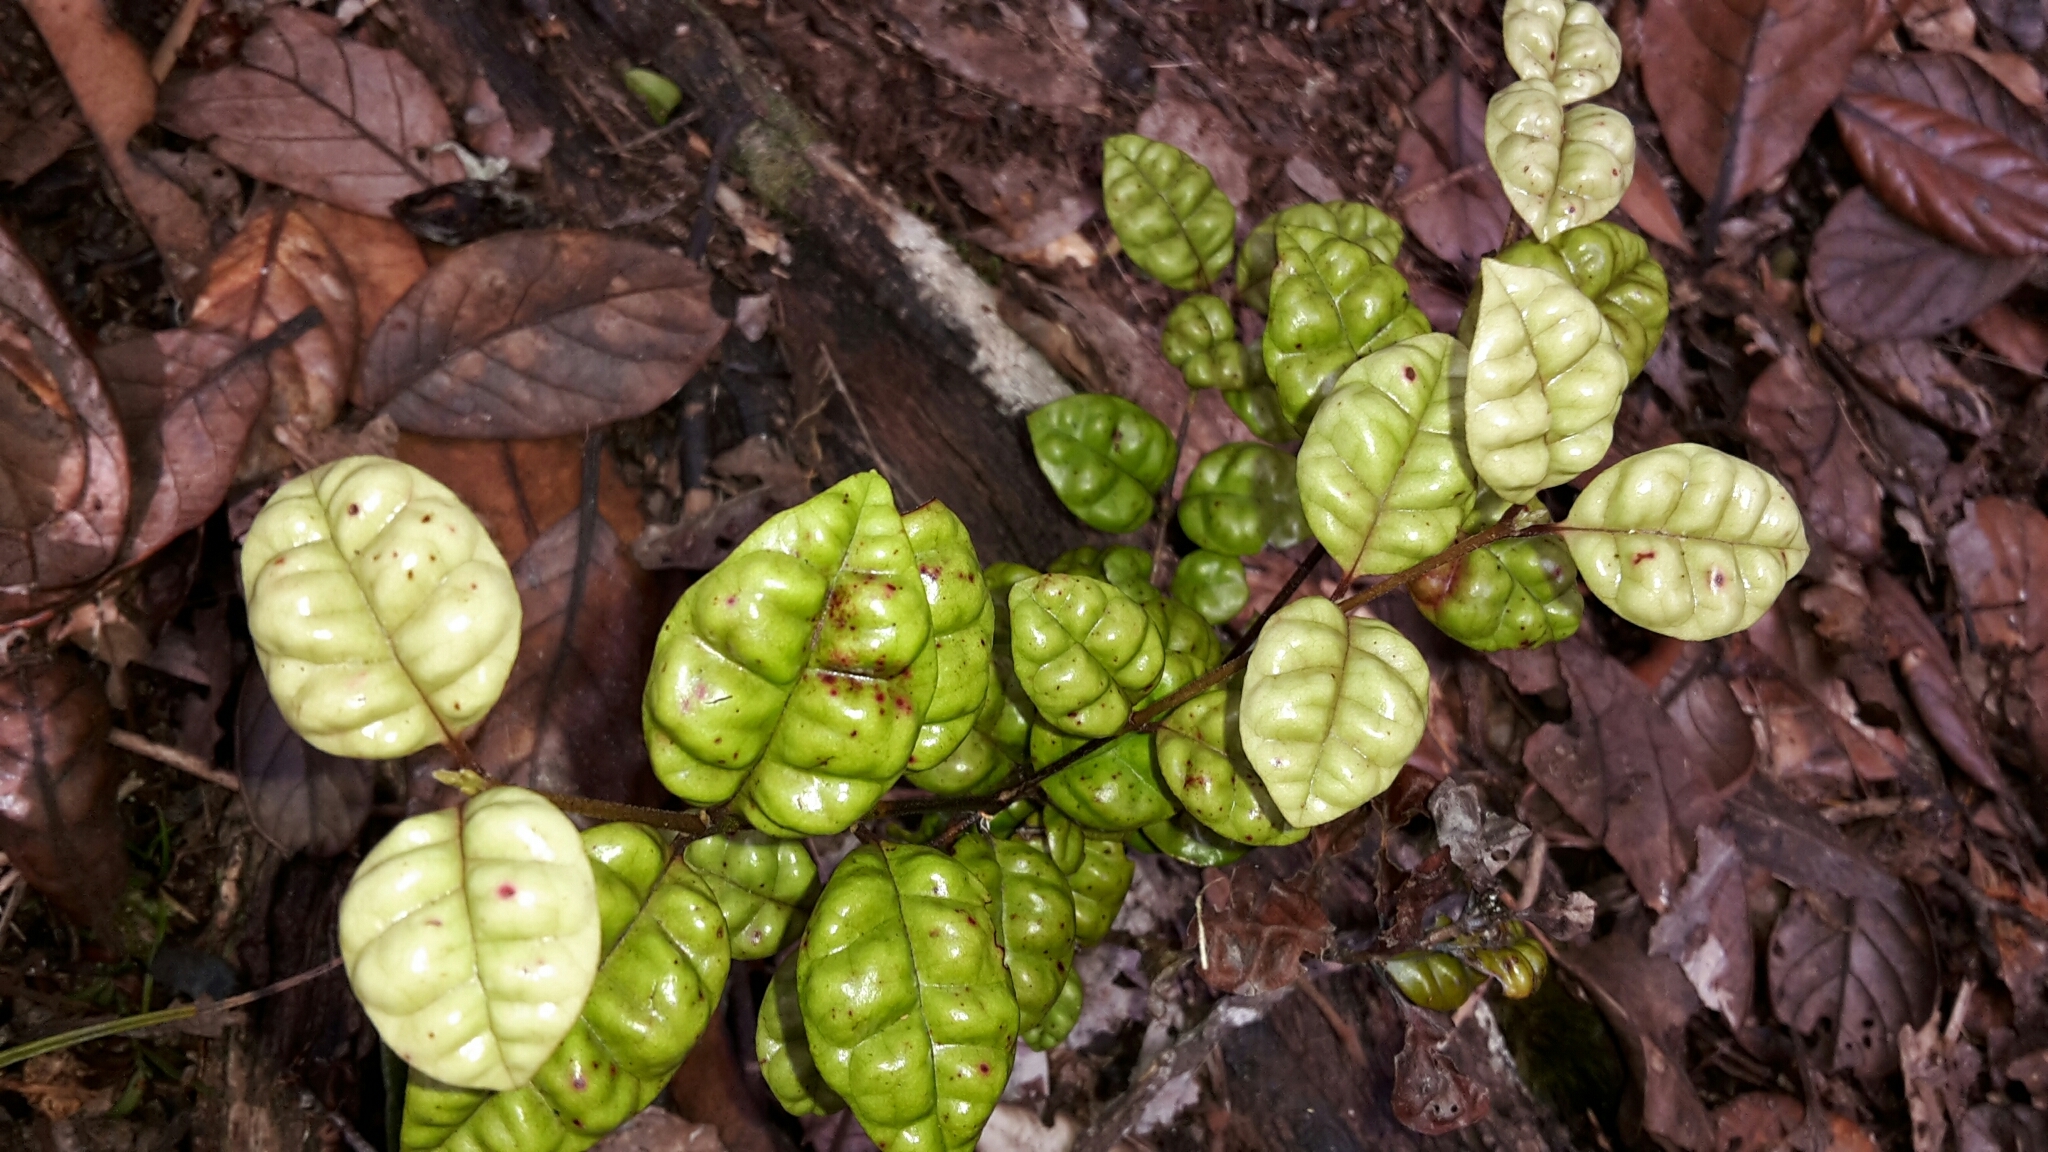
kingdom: Plantae
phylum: Tracheophyta
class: Magnoliopsida
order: Myrtales
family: Myrtaceae
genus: Lophomyrtus
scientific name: Lophomyrtus bullata
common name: Rama rama
